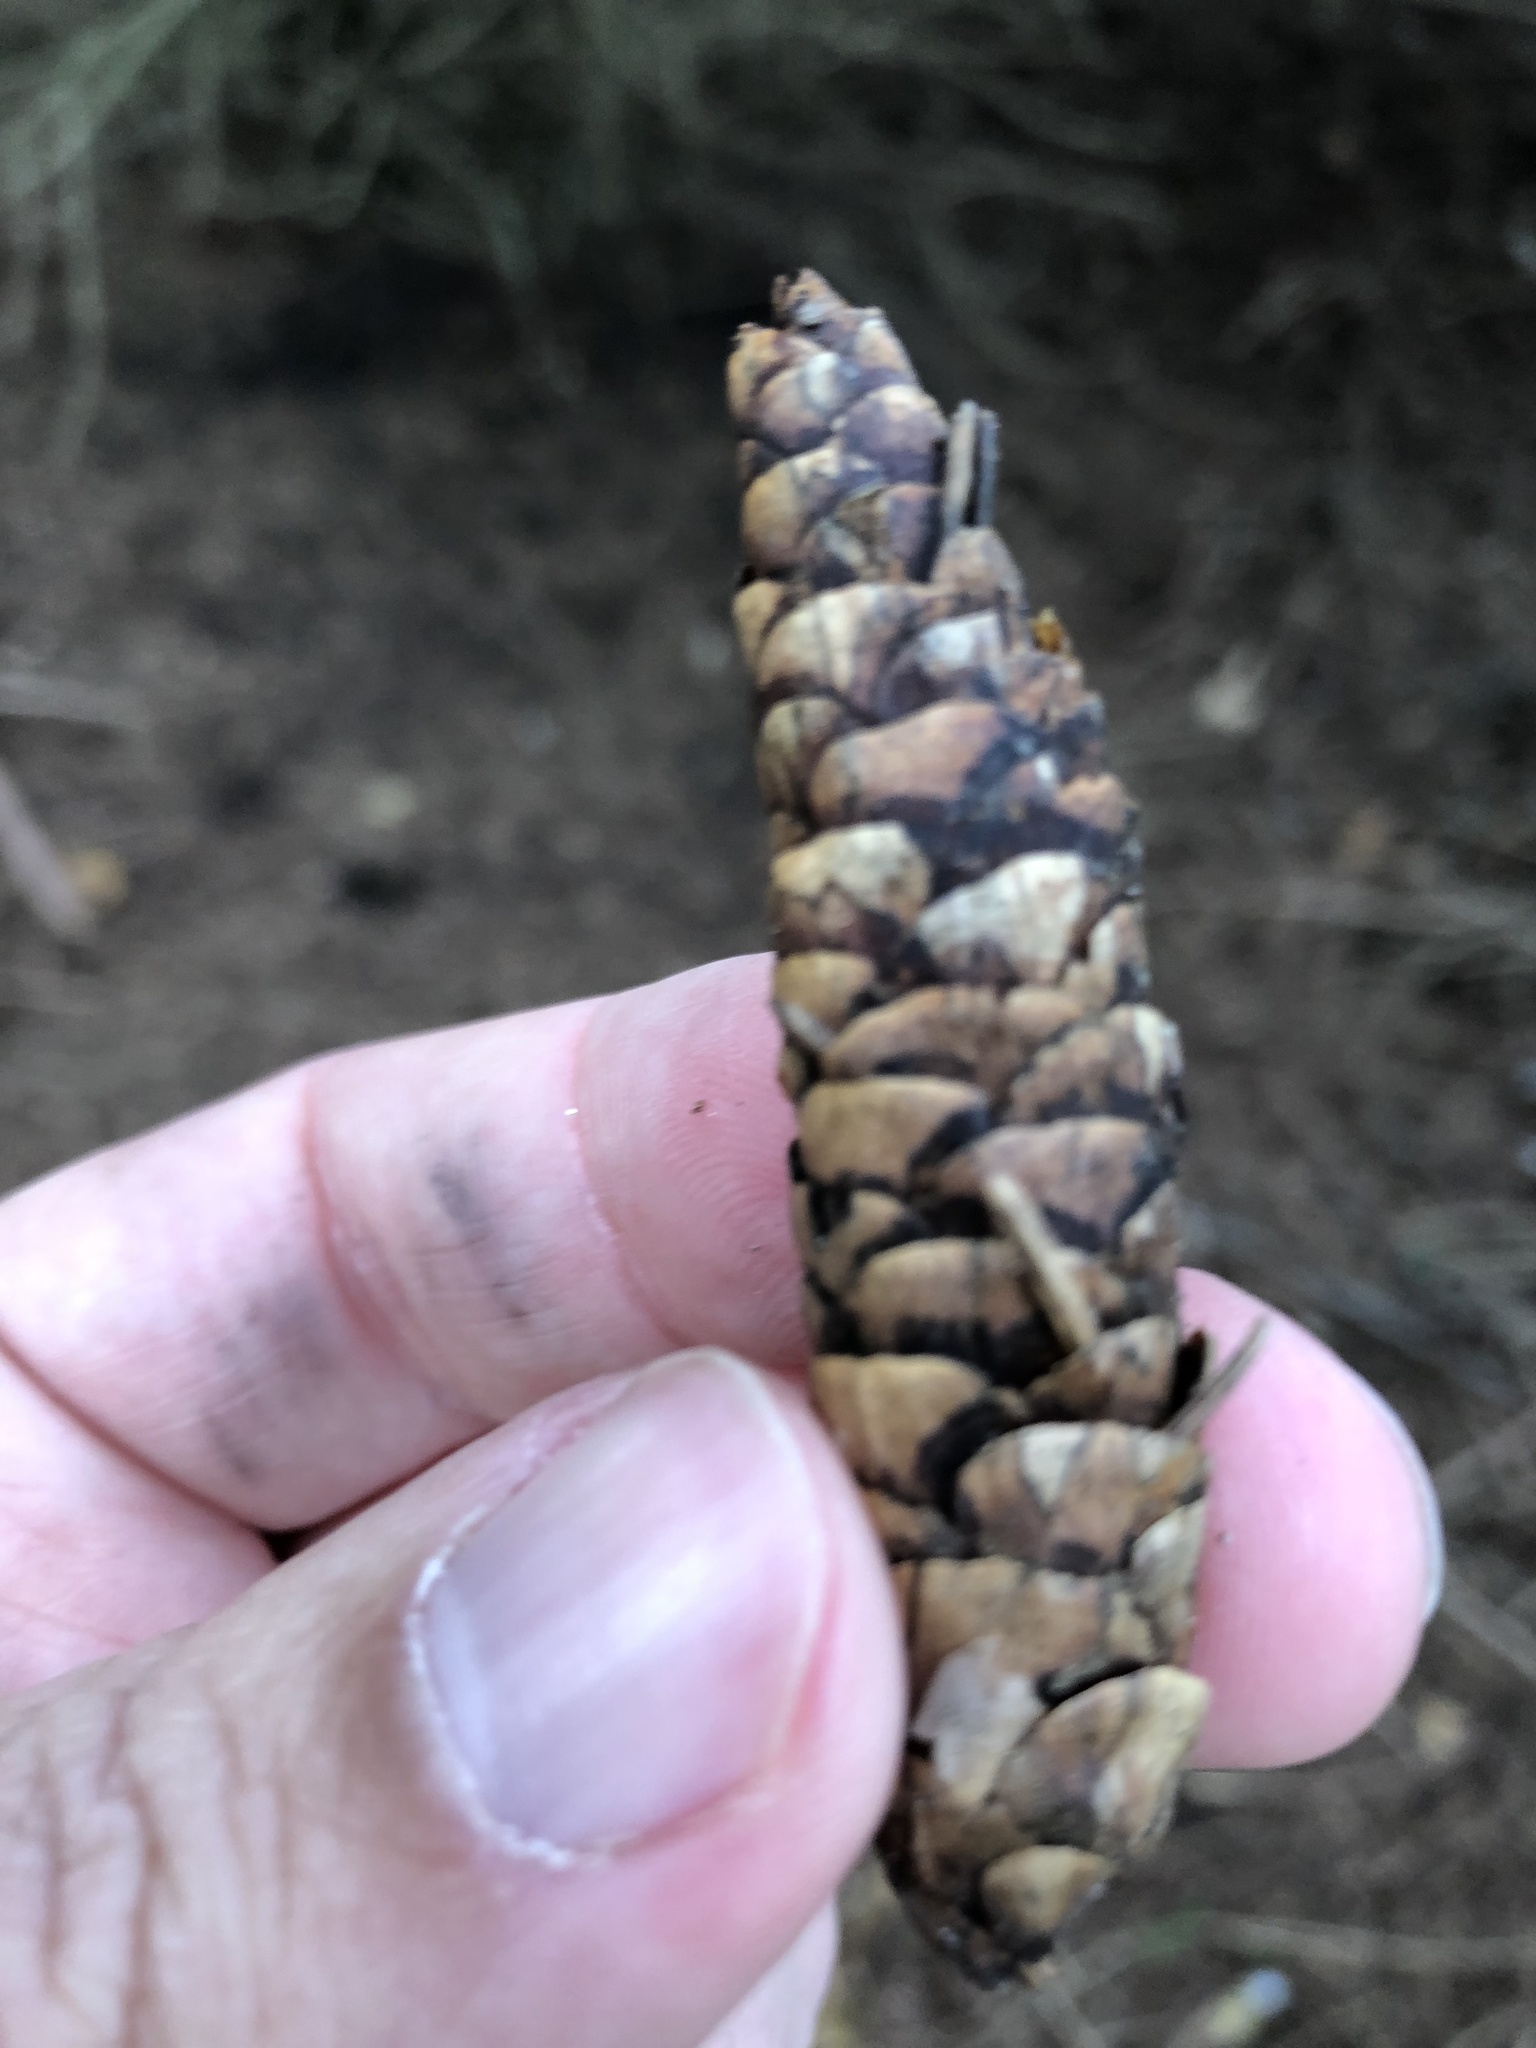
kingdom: Plantae
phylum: Tracheophyta
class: Pinopsida
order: Pinales
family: Pinaceae
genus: Picea
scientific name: Picea glauca
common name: White spruce
